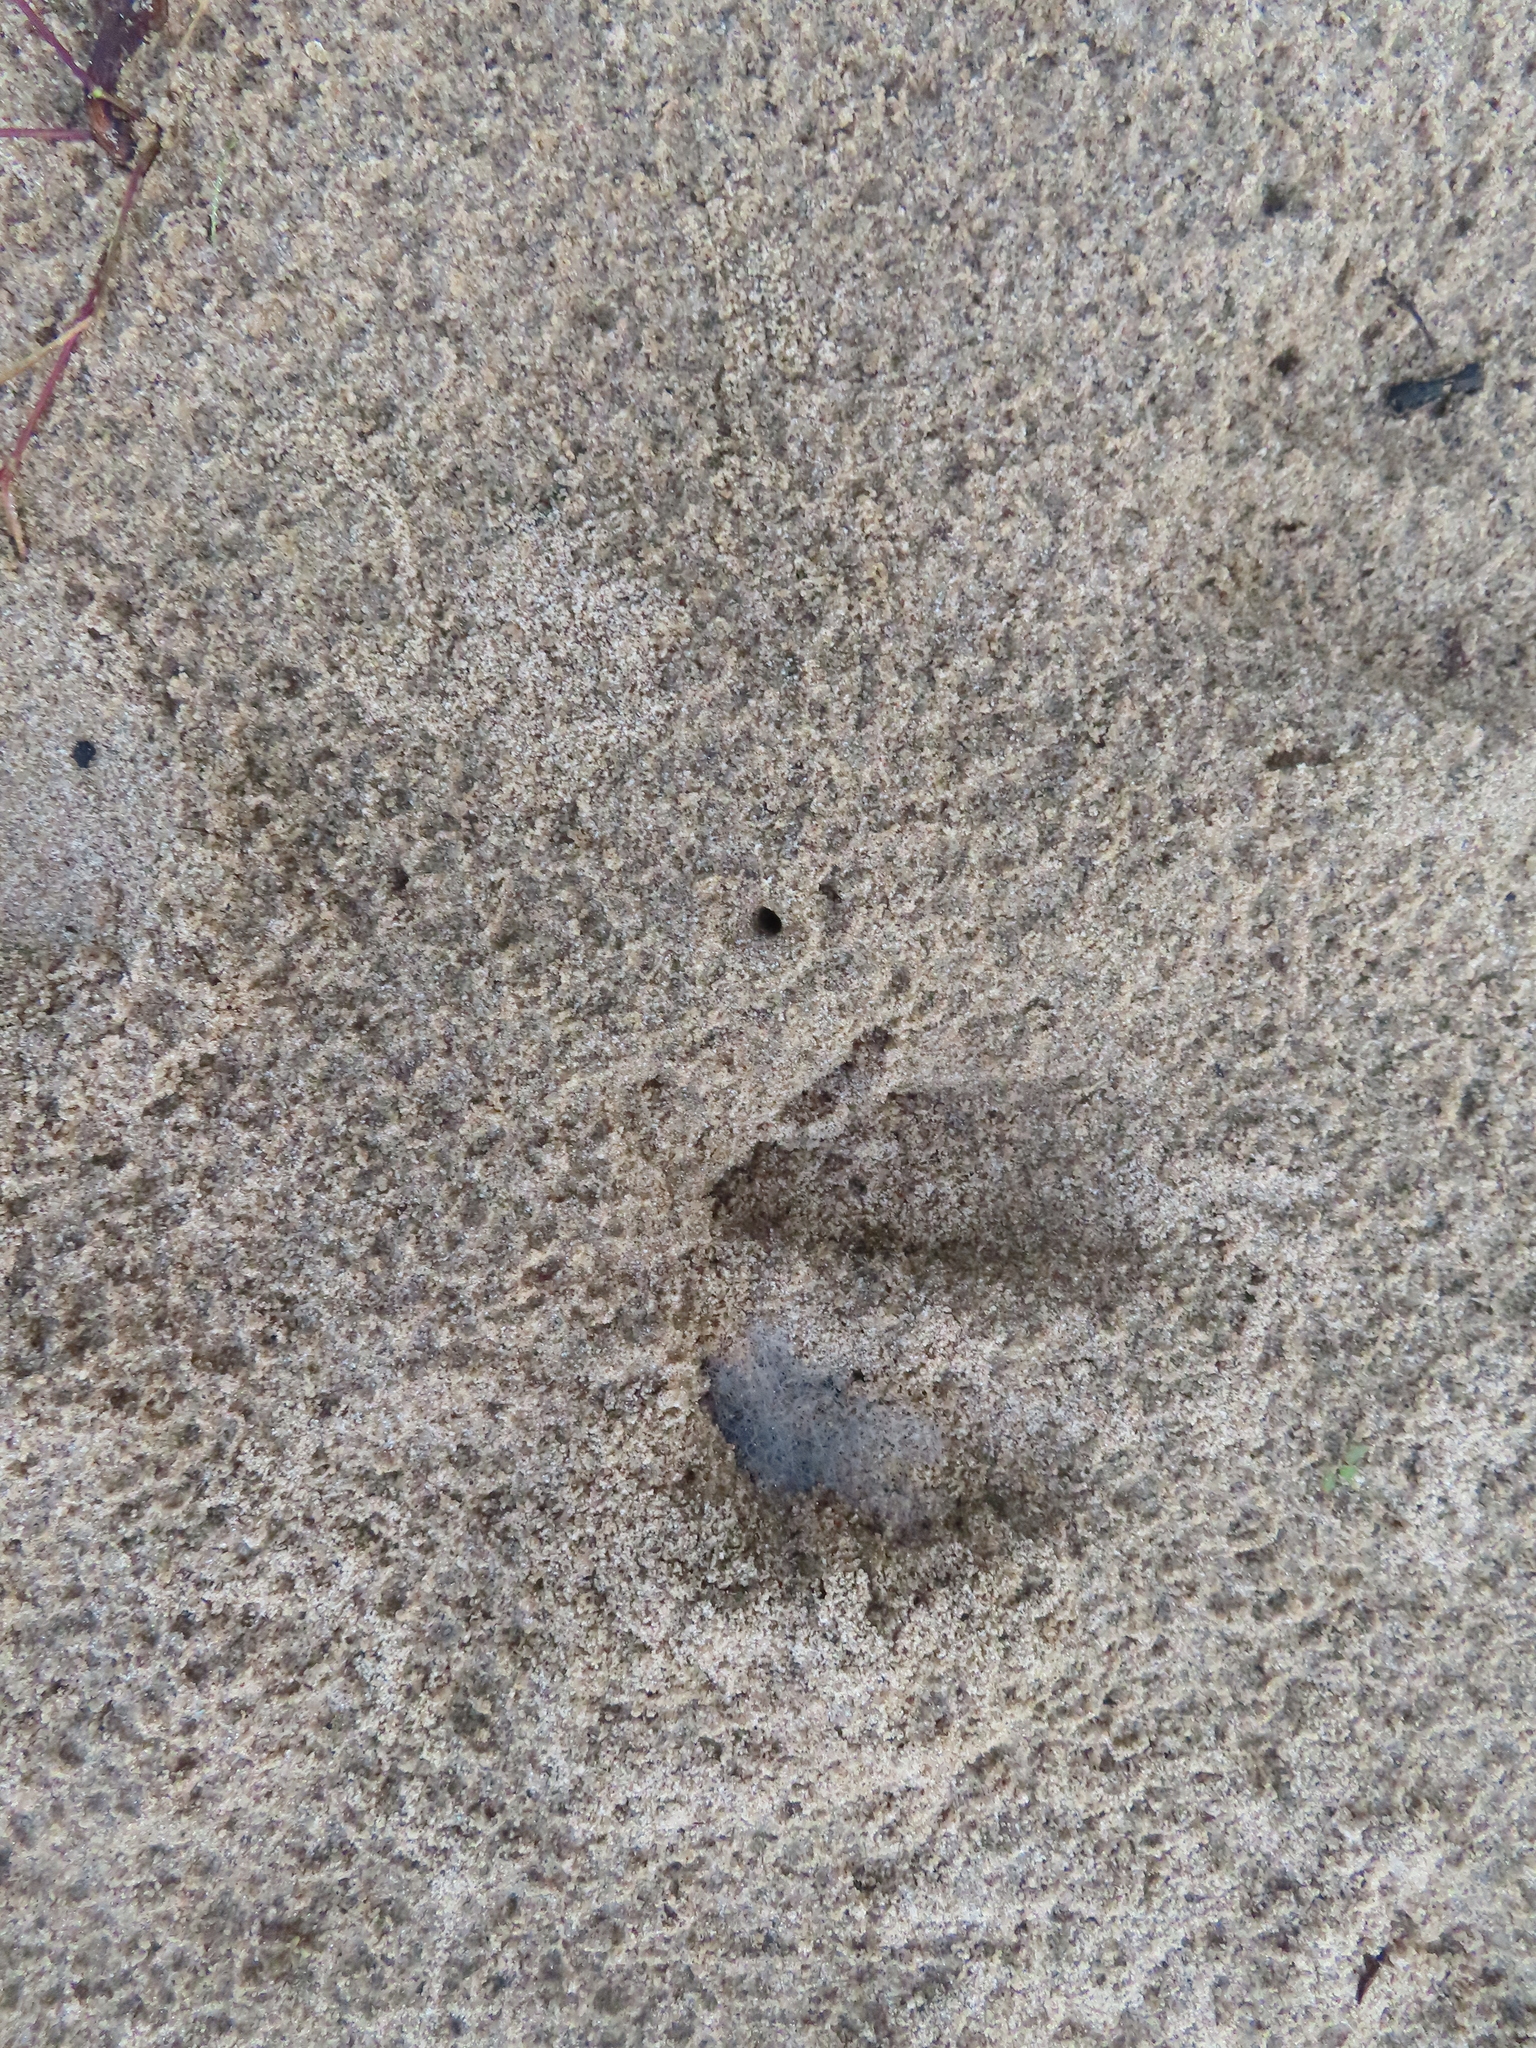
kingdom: Animalia
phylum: Chordata
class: Mammalia
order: Artiodactyla
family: Cervidae
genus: Odocoileus
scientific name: Odocoileus virginianus
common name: White-tailed deer
